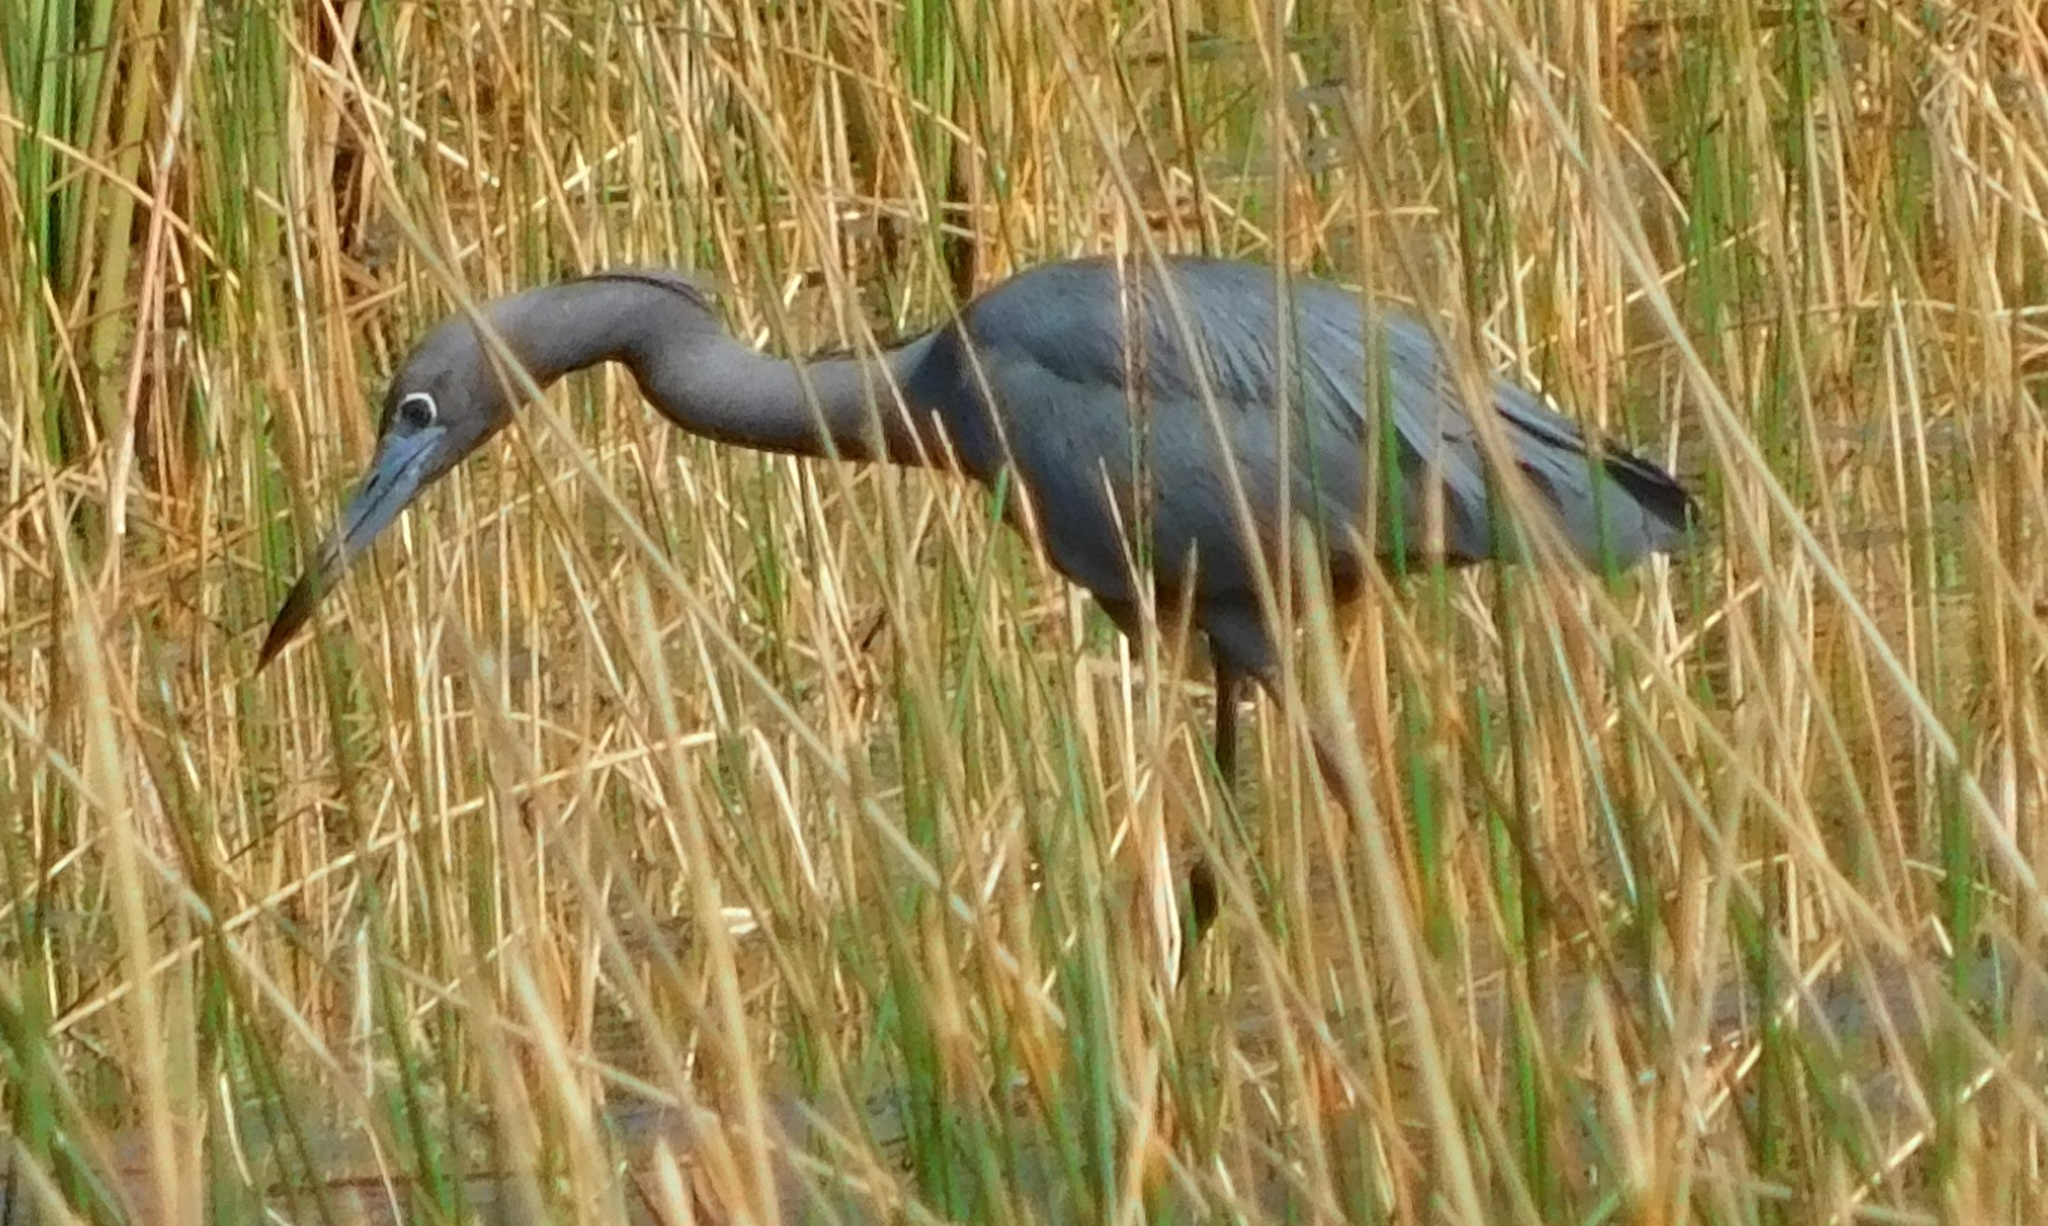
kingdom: Animalia
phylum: Chordata
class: Aves
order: Pelecaniformes
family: Ardeidae
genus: Egretta
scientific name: Egretta caerulea
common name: Little blue heron
